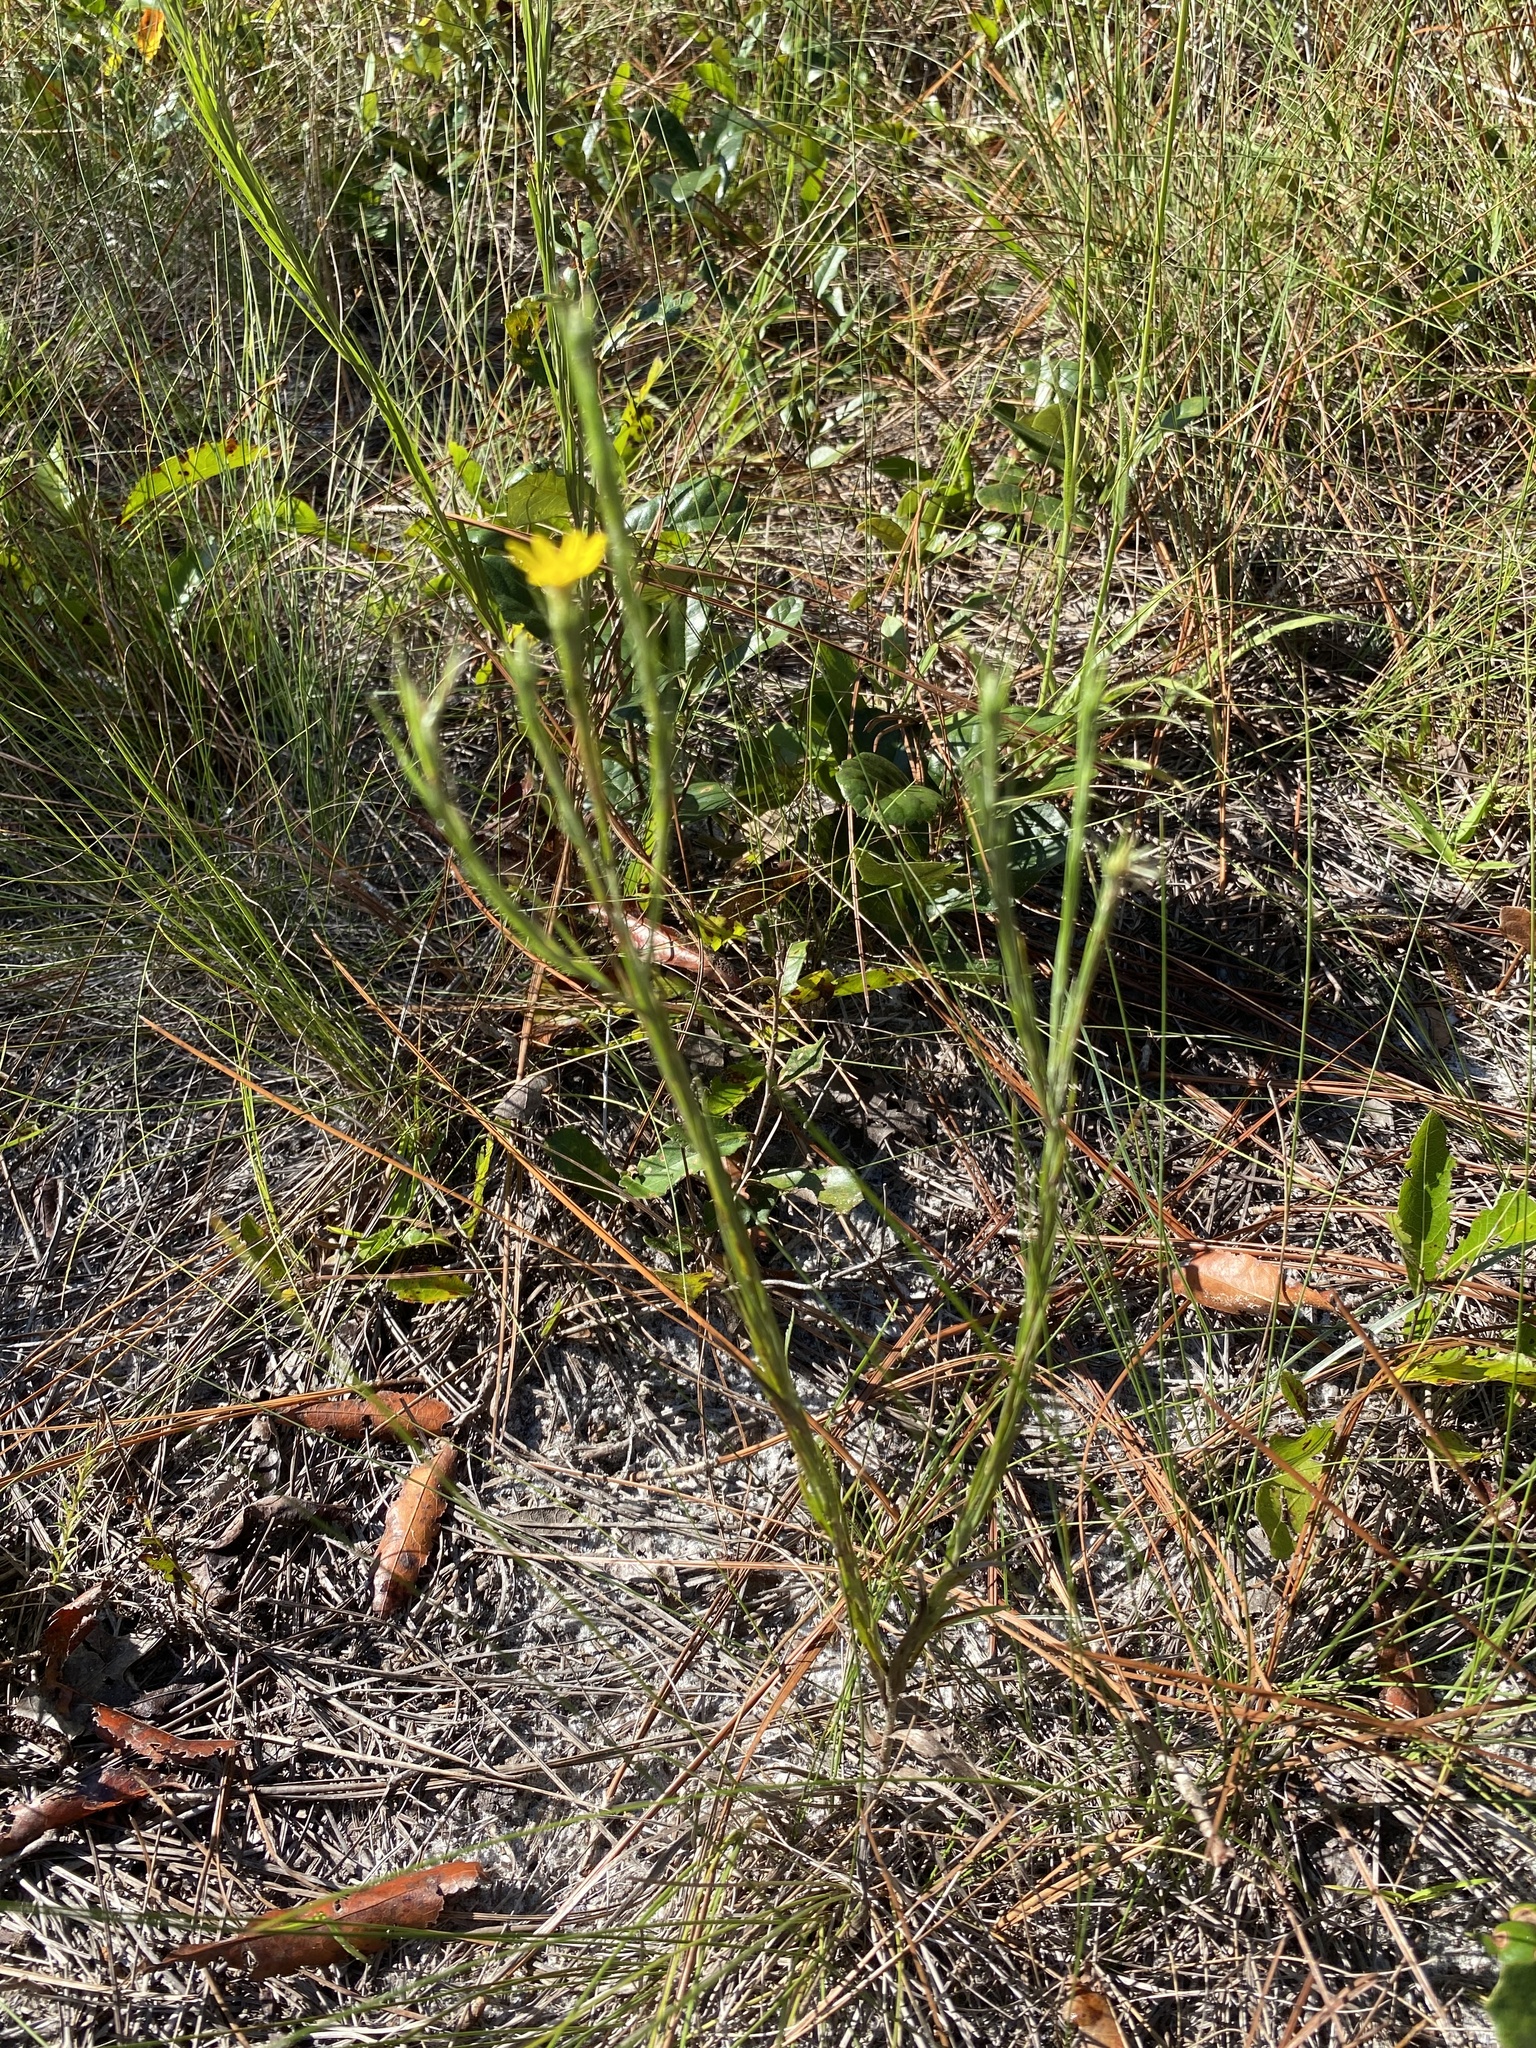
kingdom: Plantae
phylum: Tracheophyta
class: Magnoliopsida
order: Asterales
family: Asteraceae
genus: Pityopsis
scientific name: Pityopsis graminifolia
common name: Grass-leaf golden-aster
